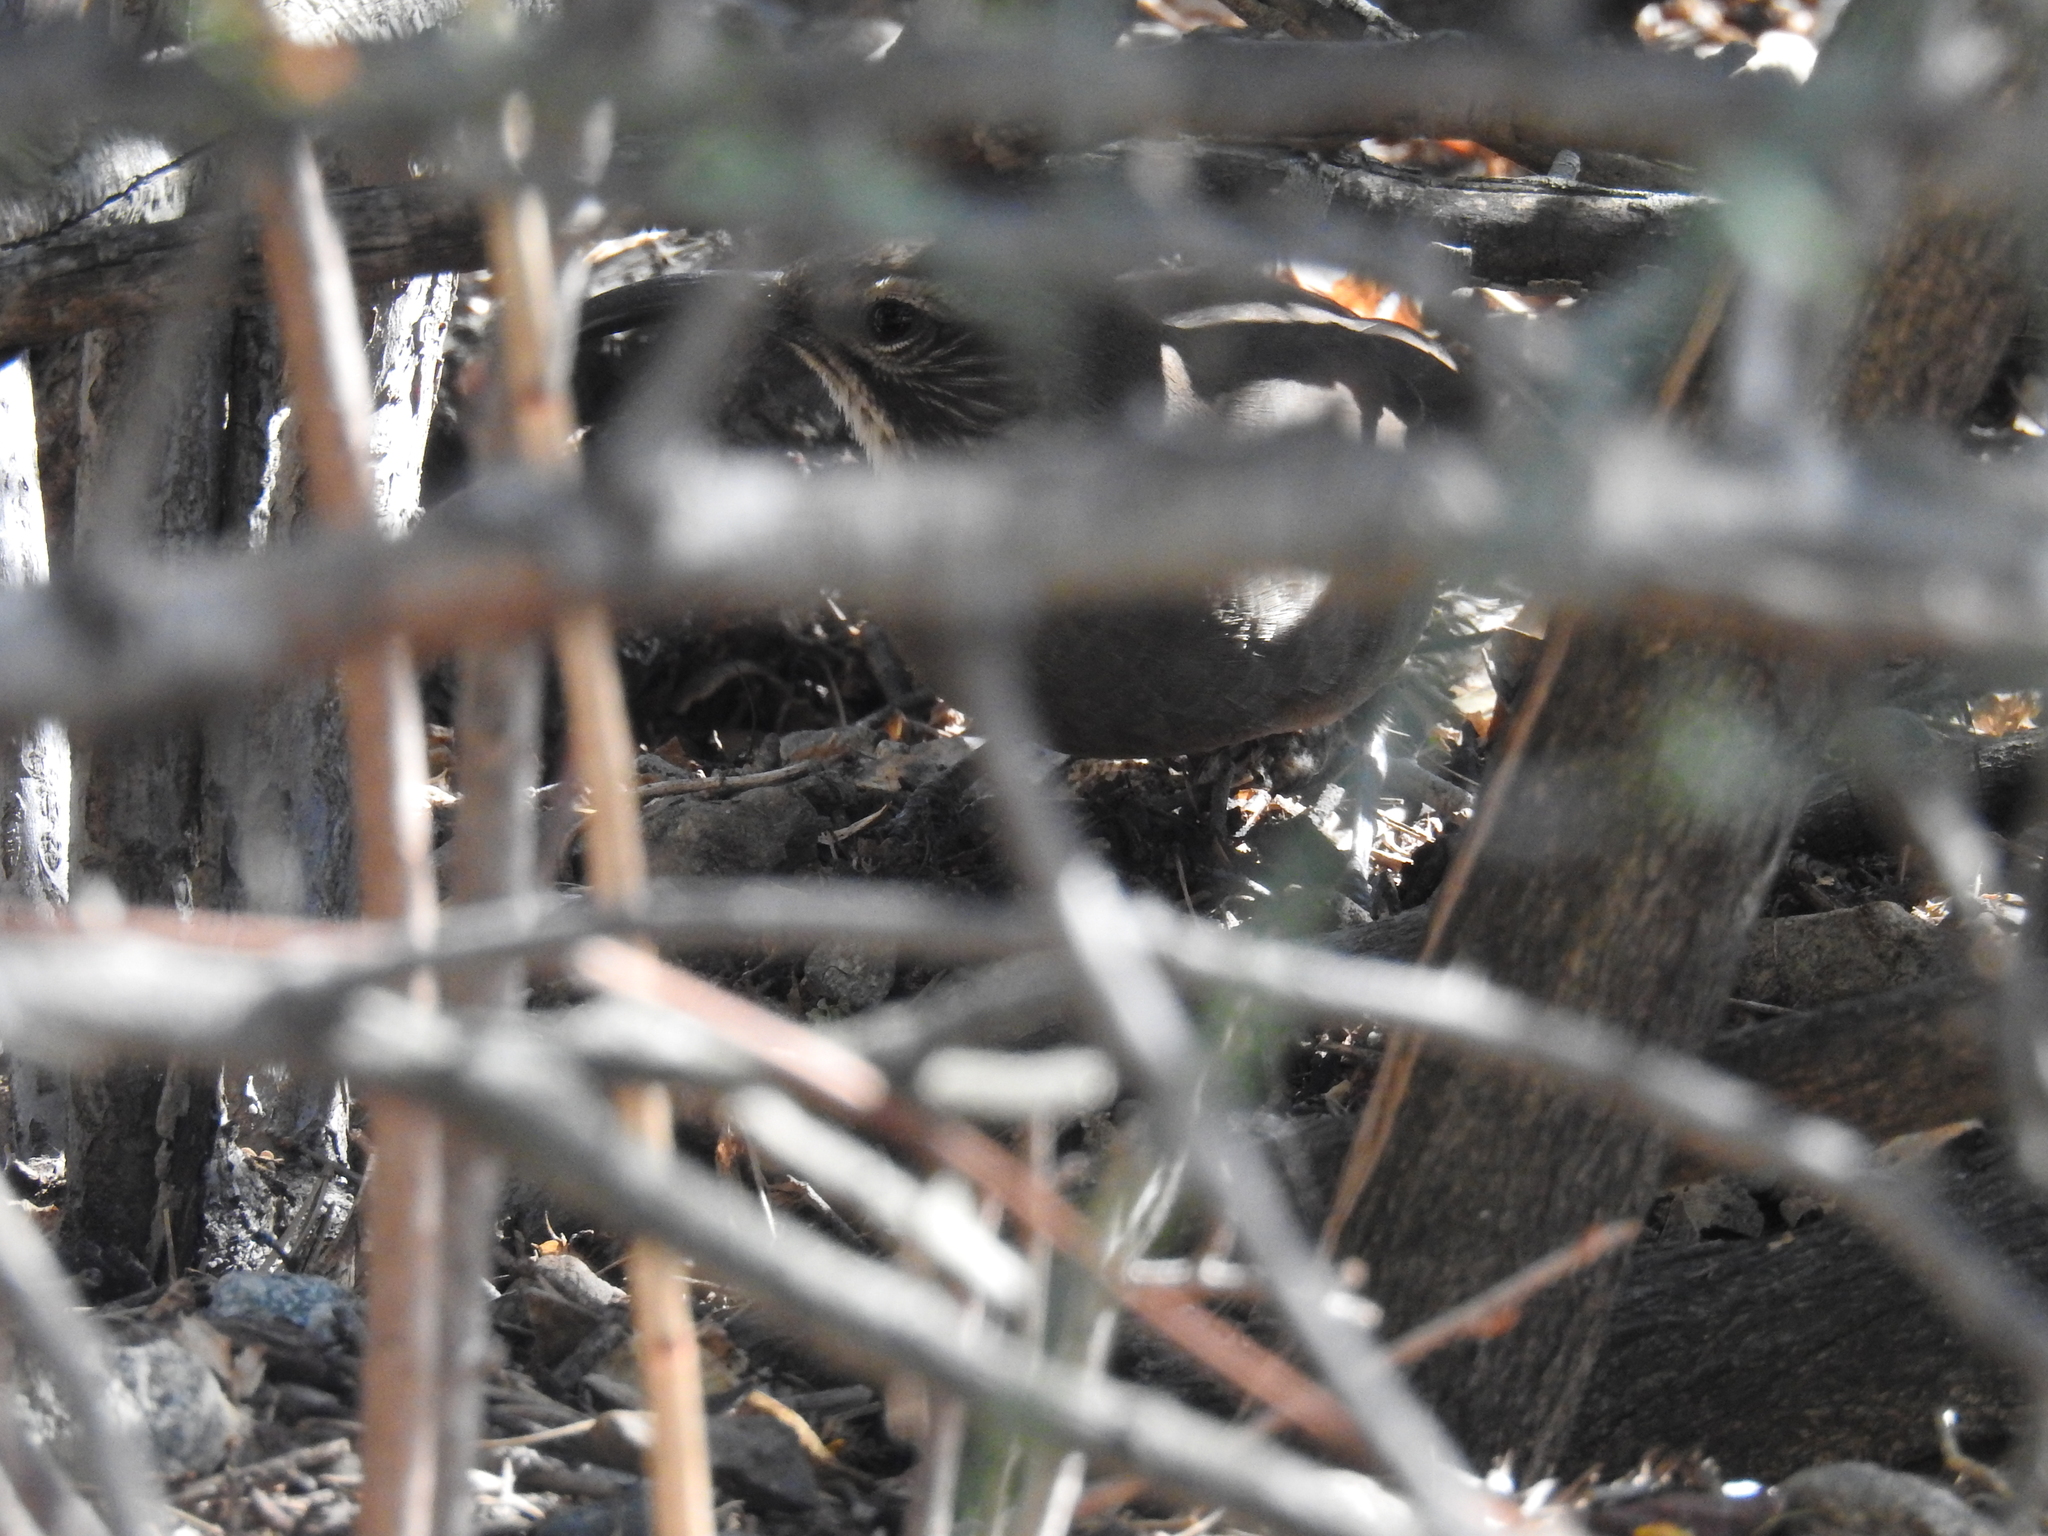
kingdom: Animalia
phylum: Chordata
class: Aves
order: Passeriformes
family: Mimidae
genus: Toxostoma
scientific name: Toxostoma redivivum
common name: California thrasher
